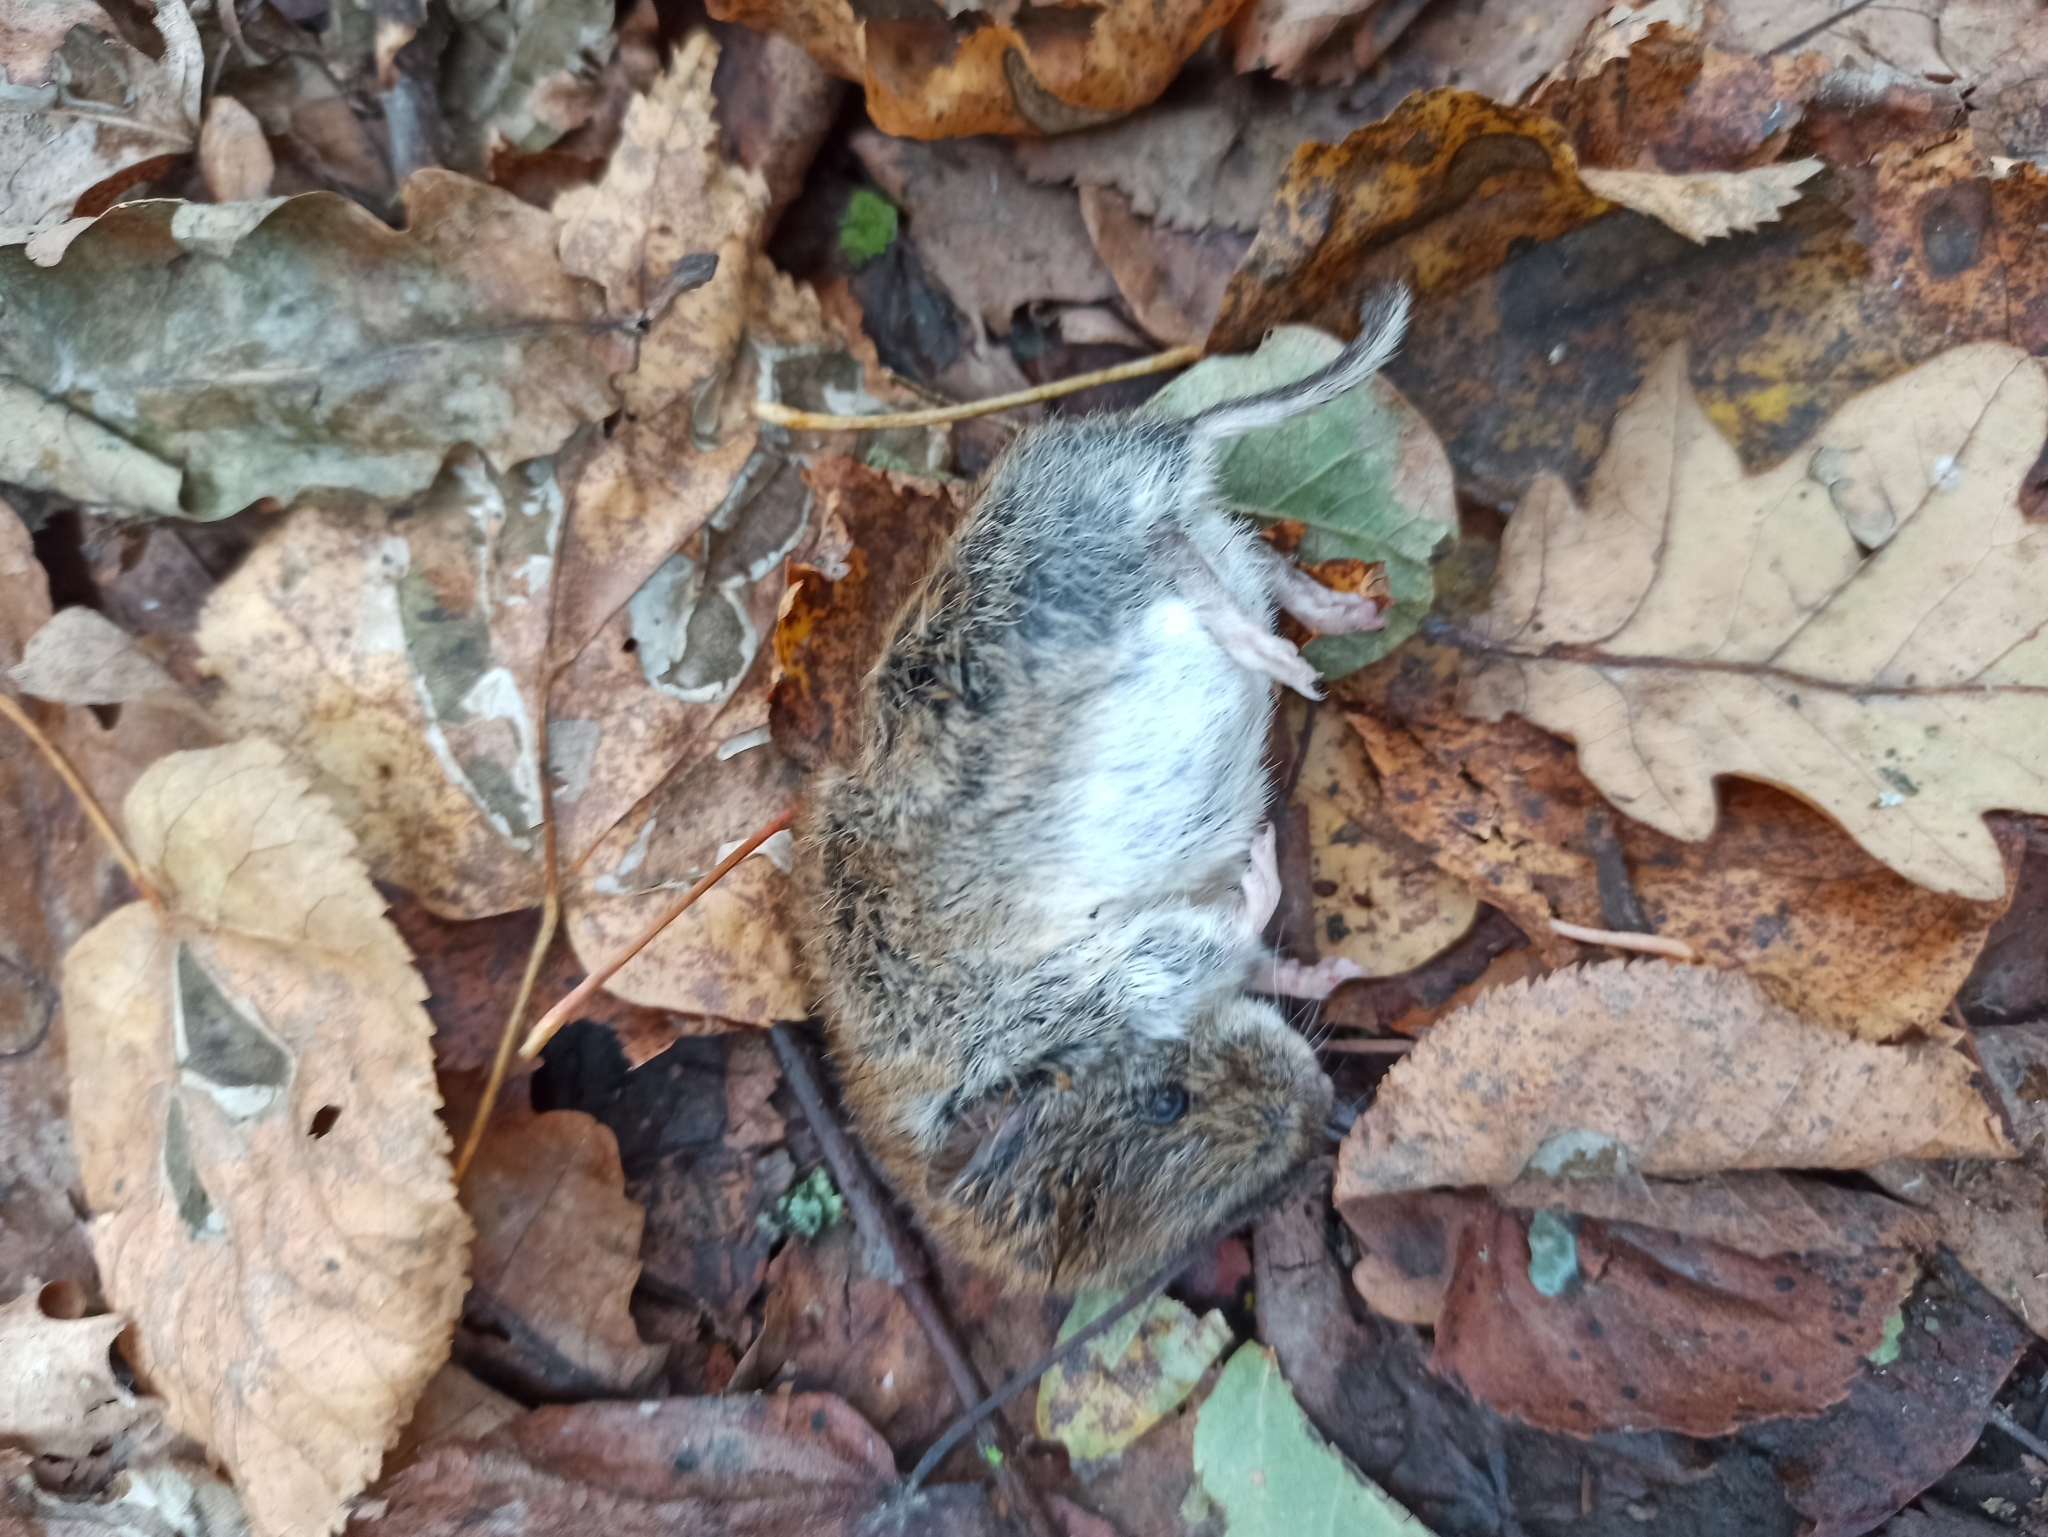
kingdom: Animalia
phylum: Chordata
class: Mammalia
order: Rodentia
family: Cricetidae
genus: Myodes
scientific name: Myodes glareolus
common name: Bank vole
